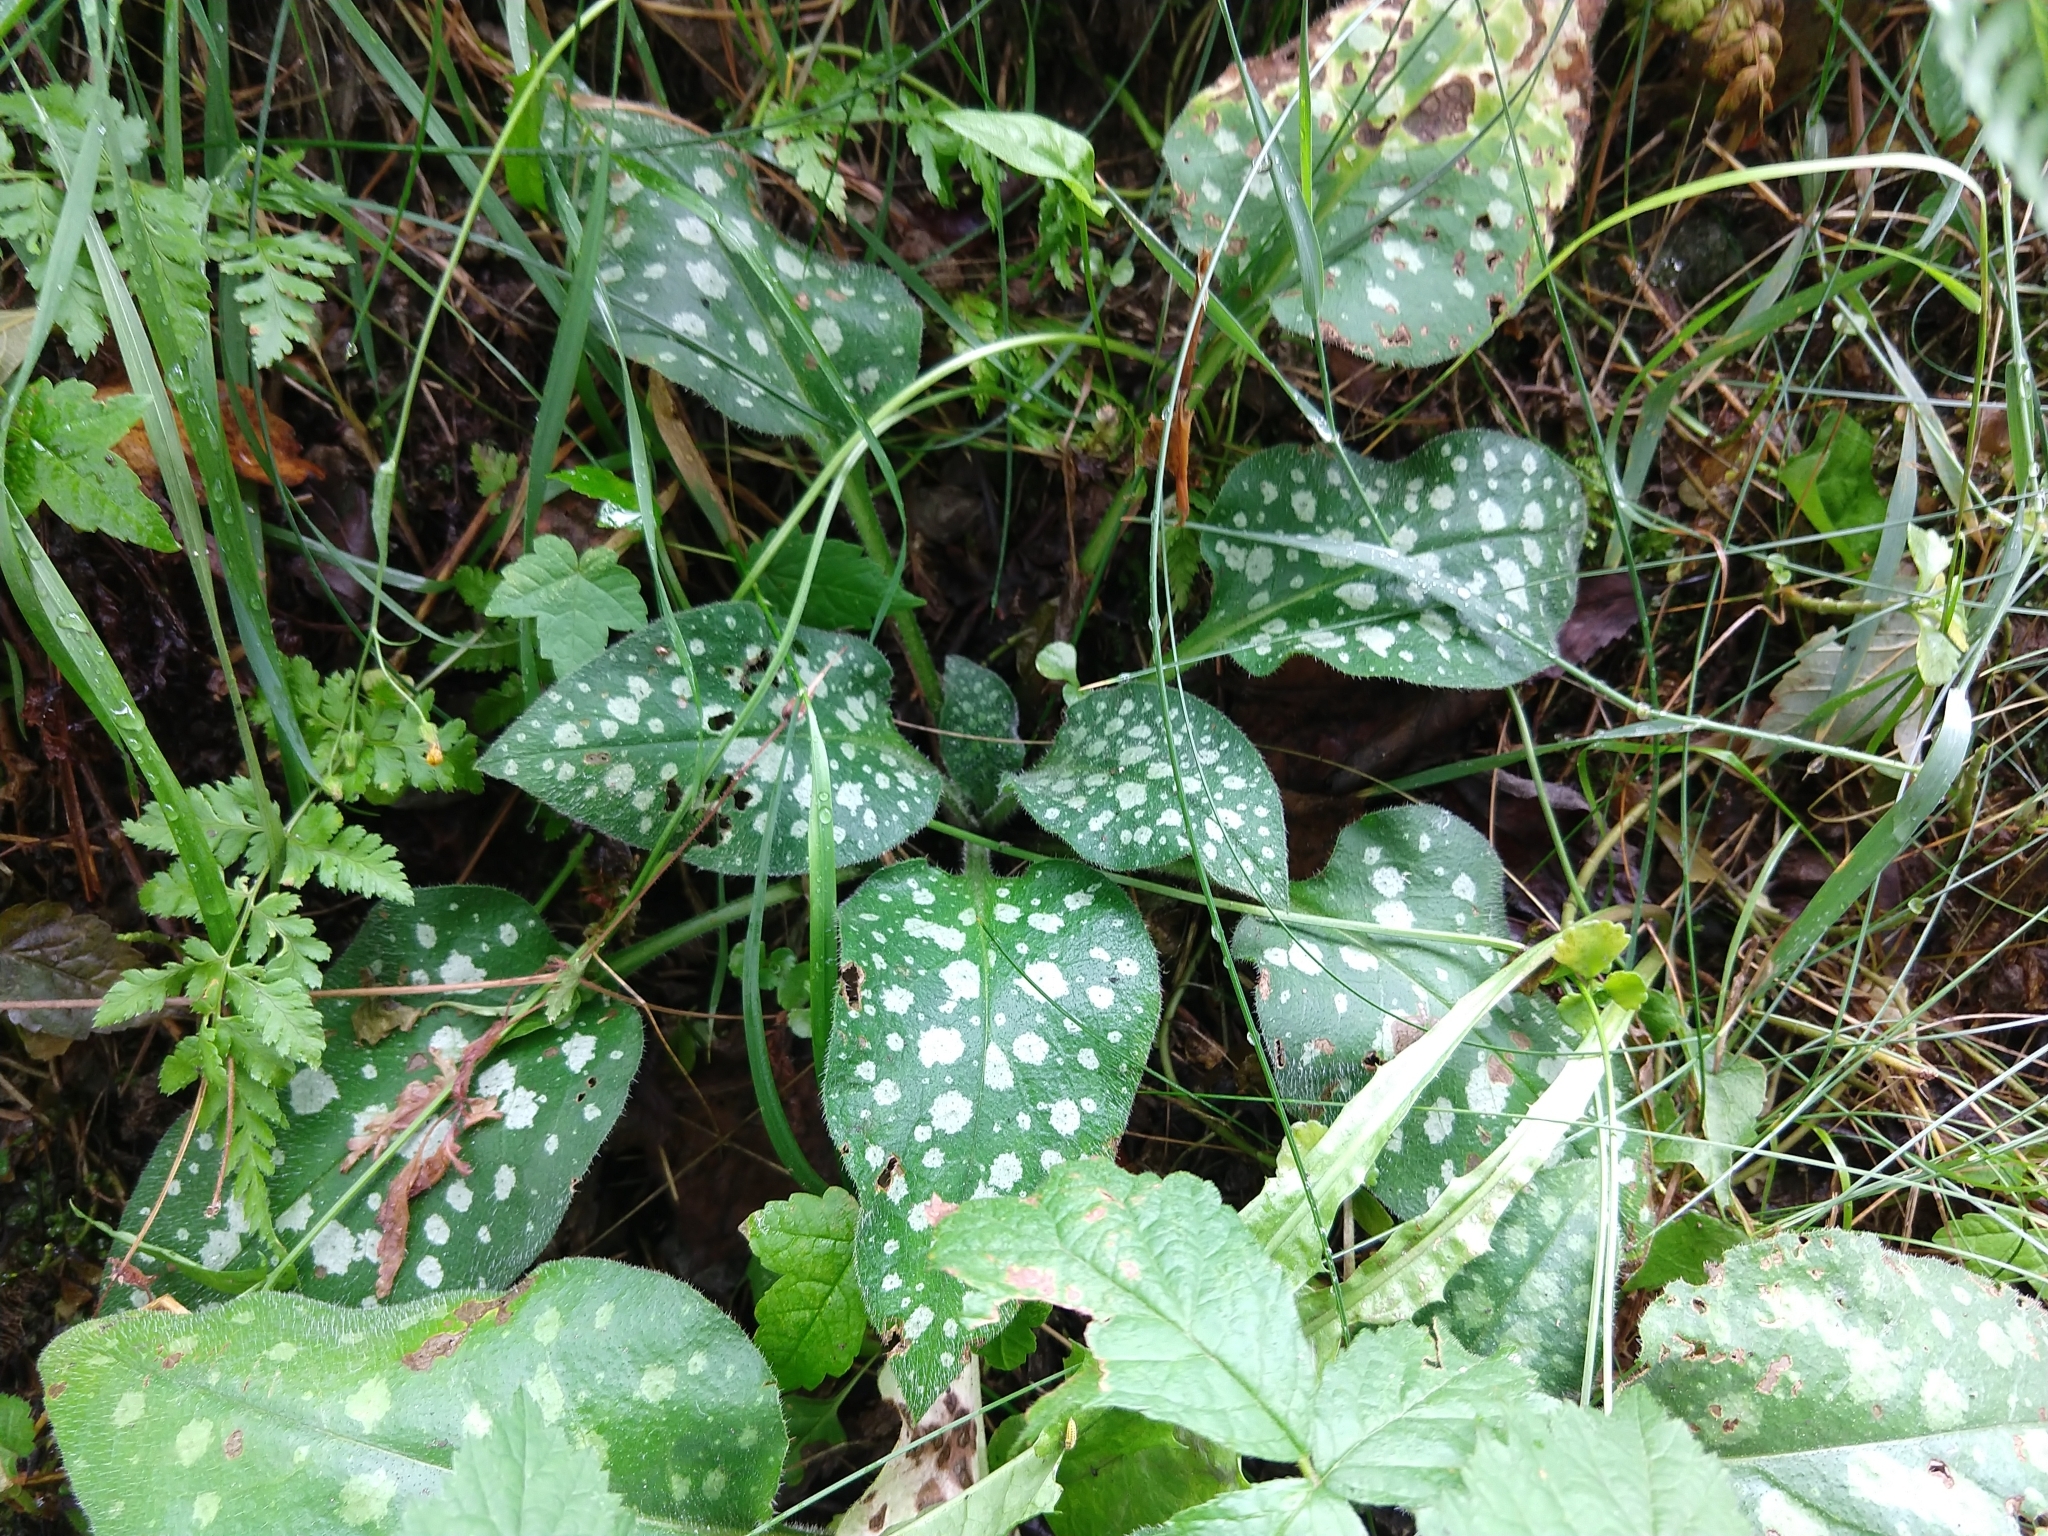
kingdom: Plantae
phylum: Tracheophyta
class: Magnoliopsida
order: Boraginales
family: Boraginaceae
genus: Pulmonaria
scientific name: Pulmonaria officinalis
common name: Lungwort
